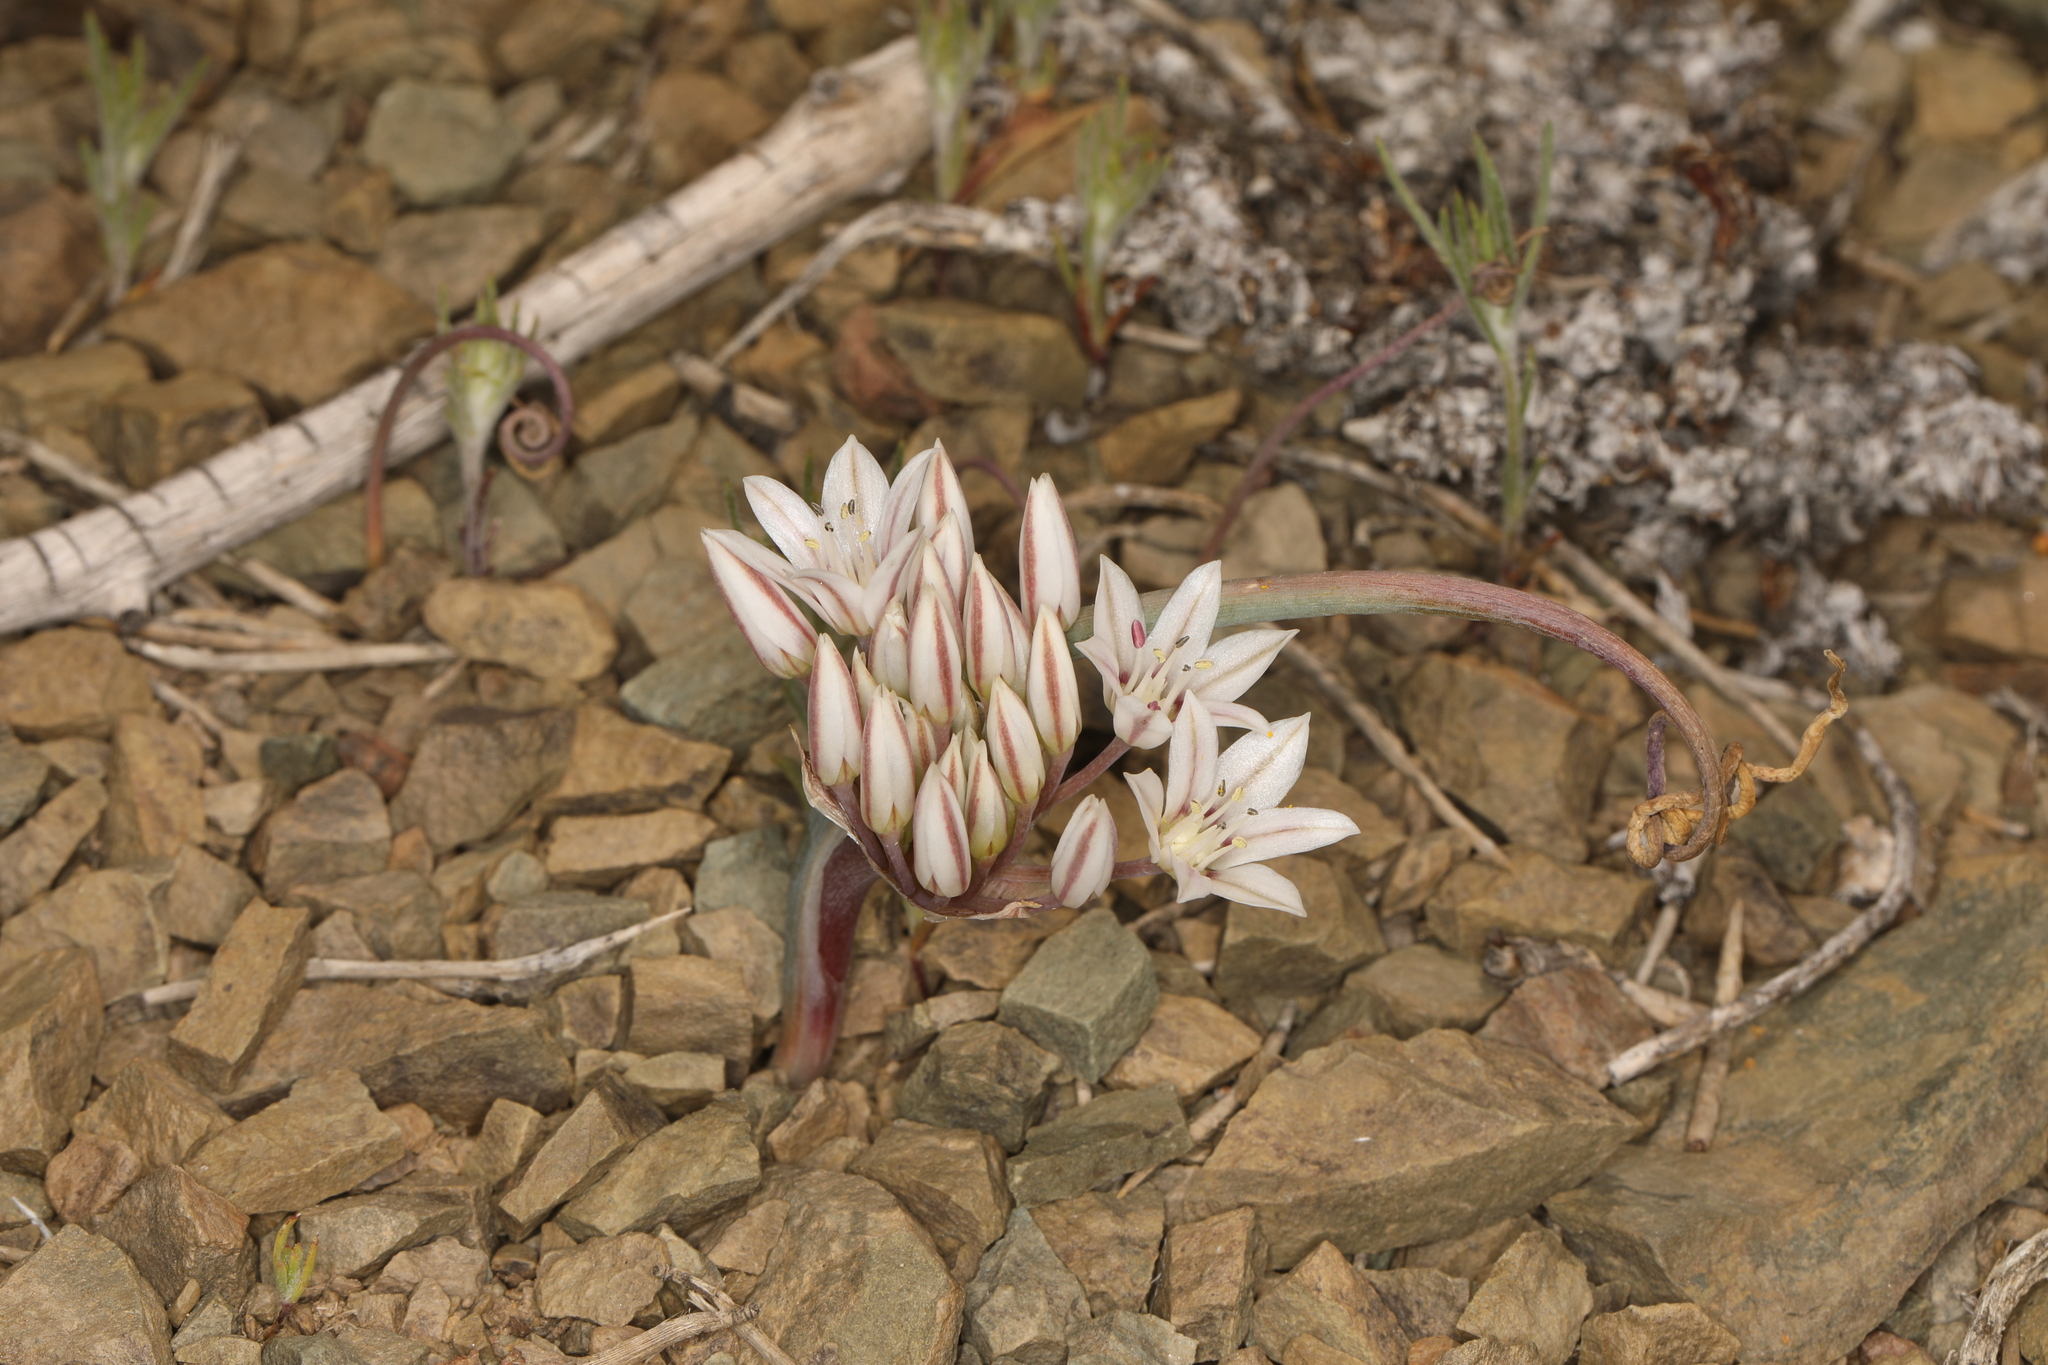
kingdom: Plantae
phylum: Tracheophyta
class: Liliopsida
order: Asparagales
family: Amaryllidaceae
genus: Allium
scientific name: Allium atrorubens
